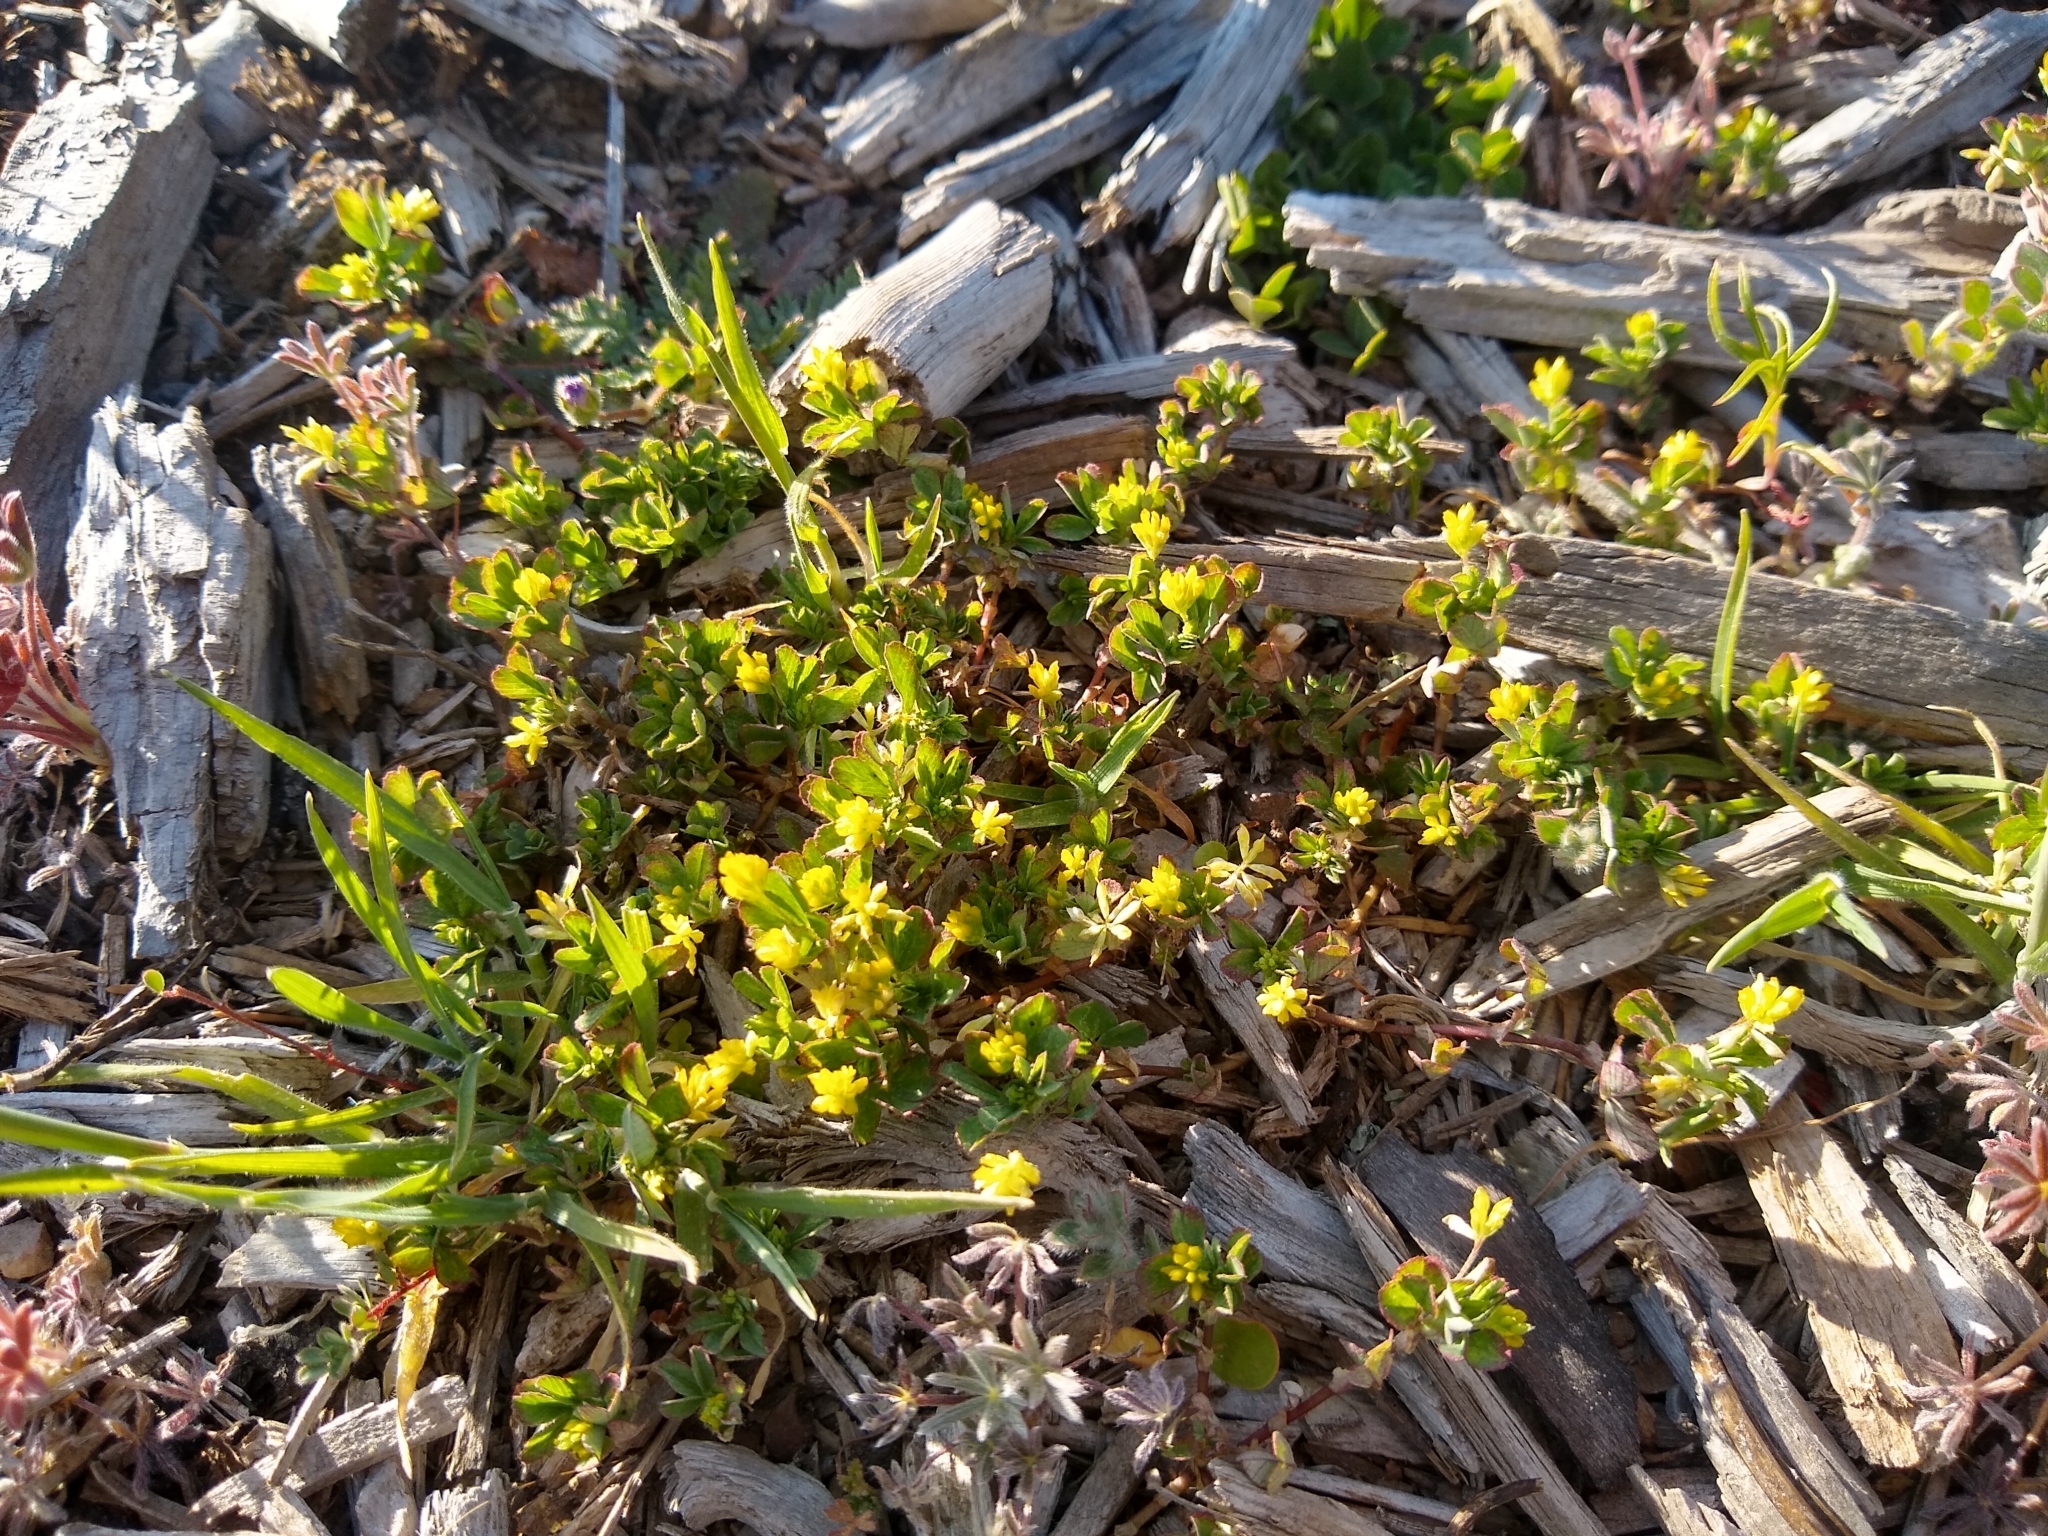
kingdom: Plantae
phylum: Tracheophyta
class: Magnoliopsida
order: Fabales
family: Fabaceae
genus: Trifolium
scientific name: Trifolium dubium
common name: Suckling clover
